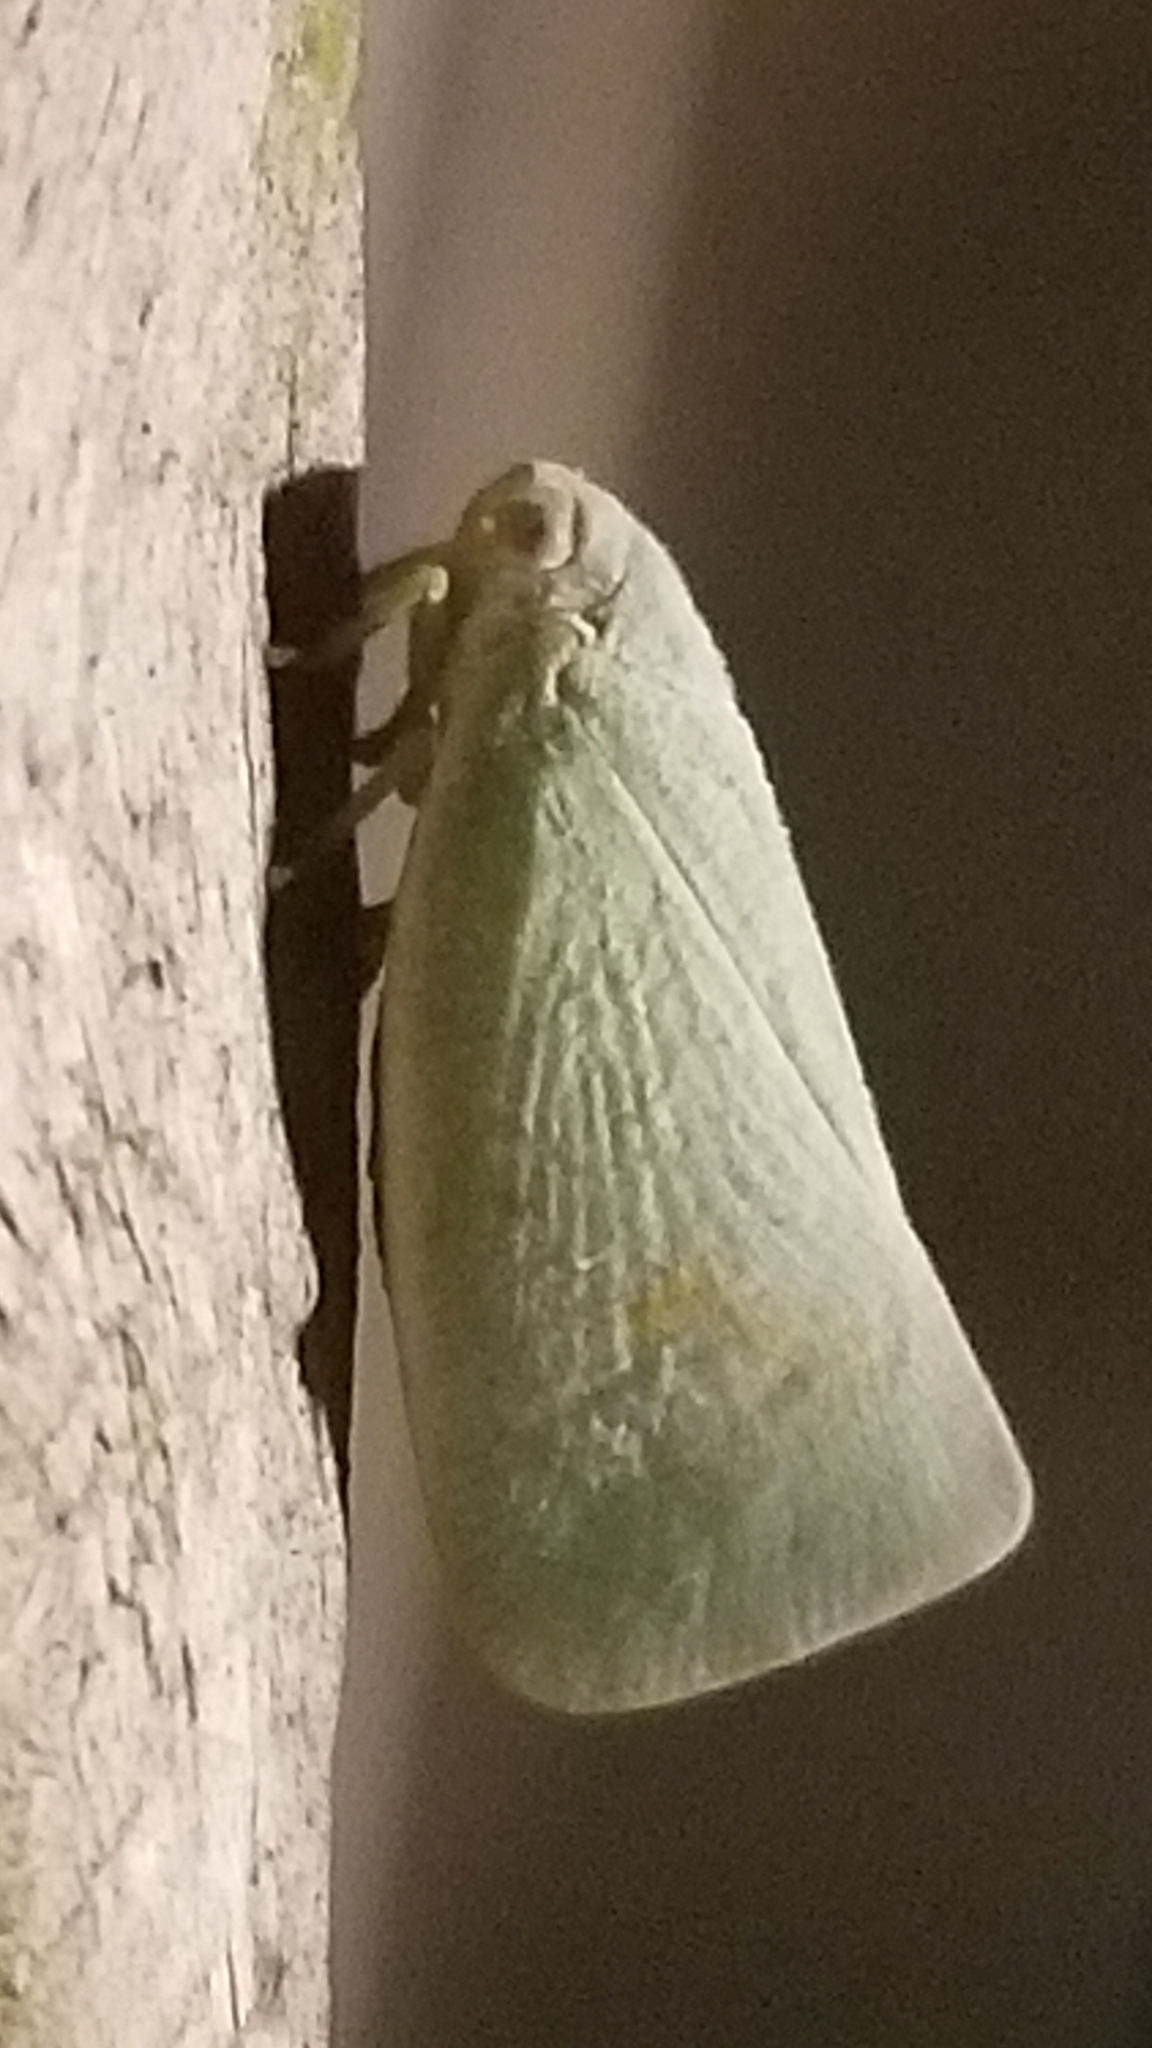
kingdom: Animalia
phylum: Arthropoda
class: Insecta
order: Hemiptera
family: Flatidae
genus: Flatormenis
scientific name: Flatormenis proxima
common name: Northern flatid planthopper
